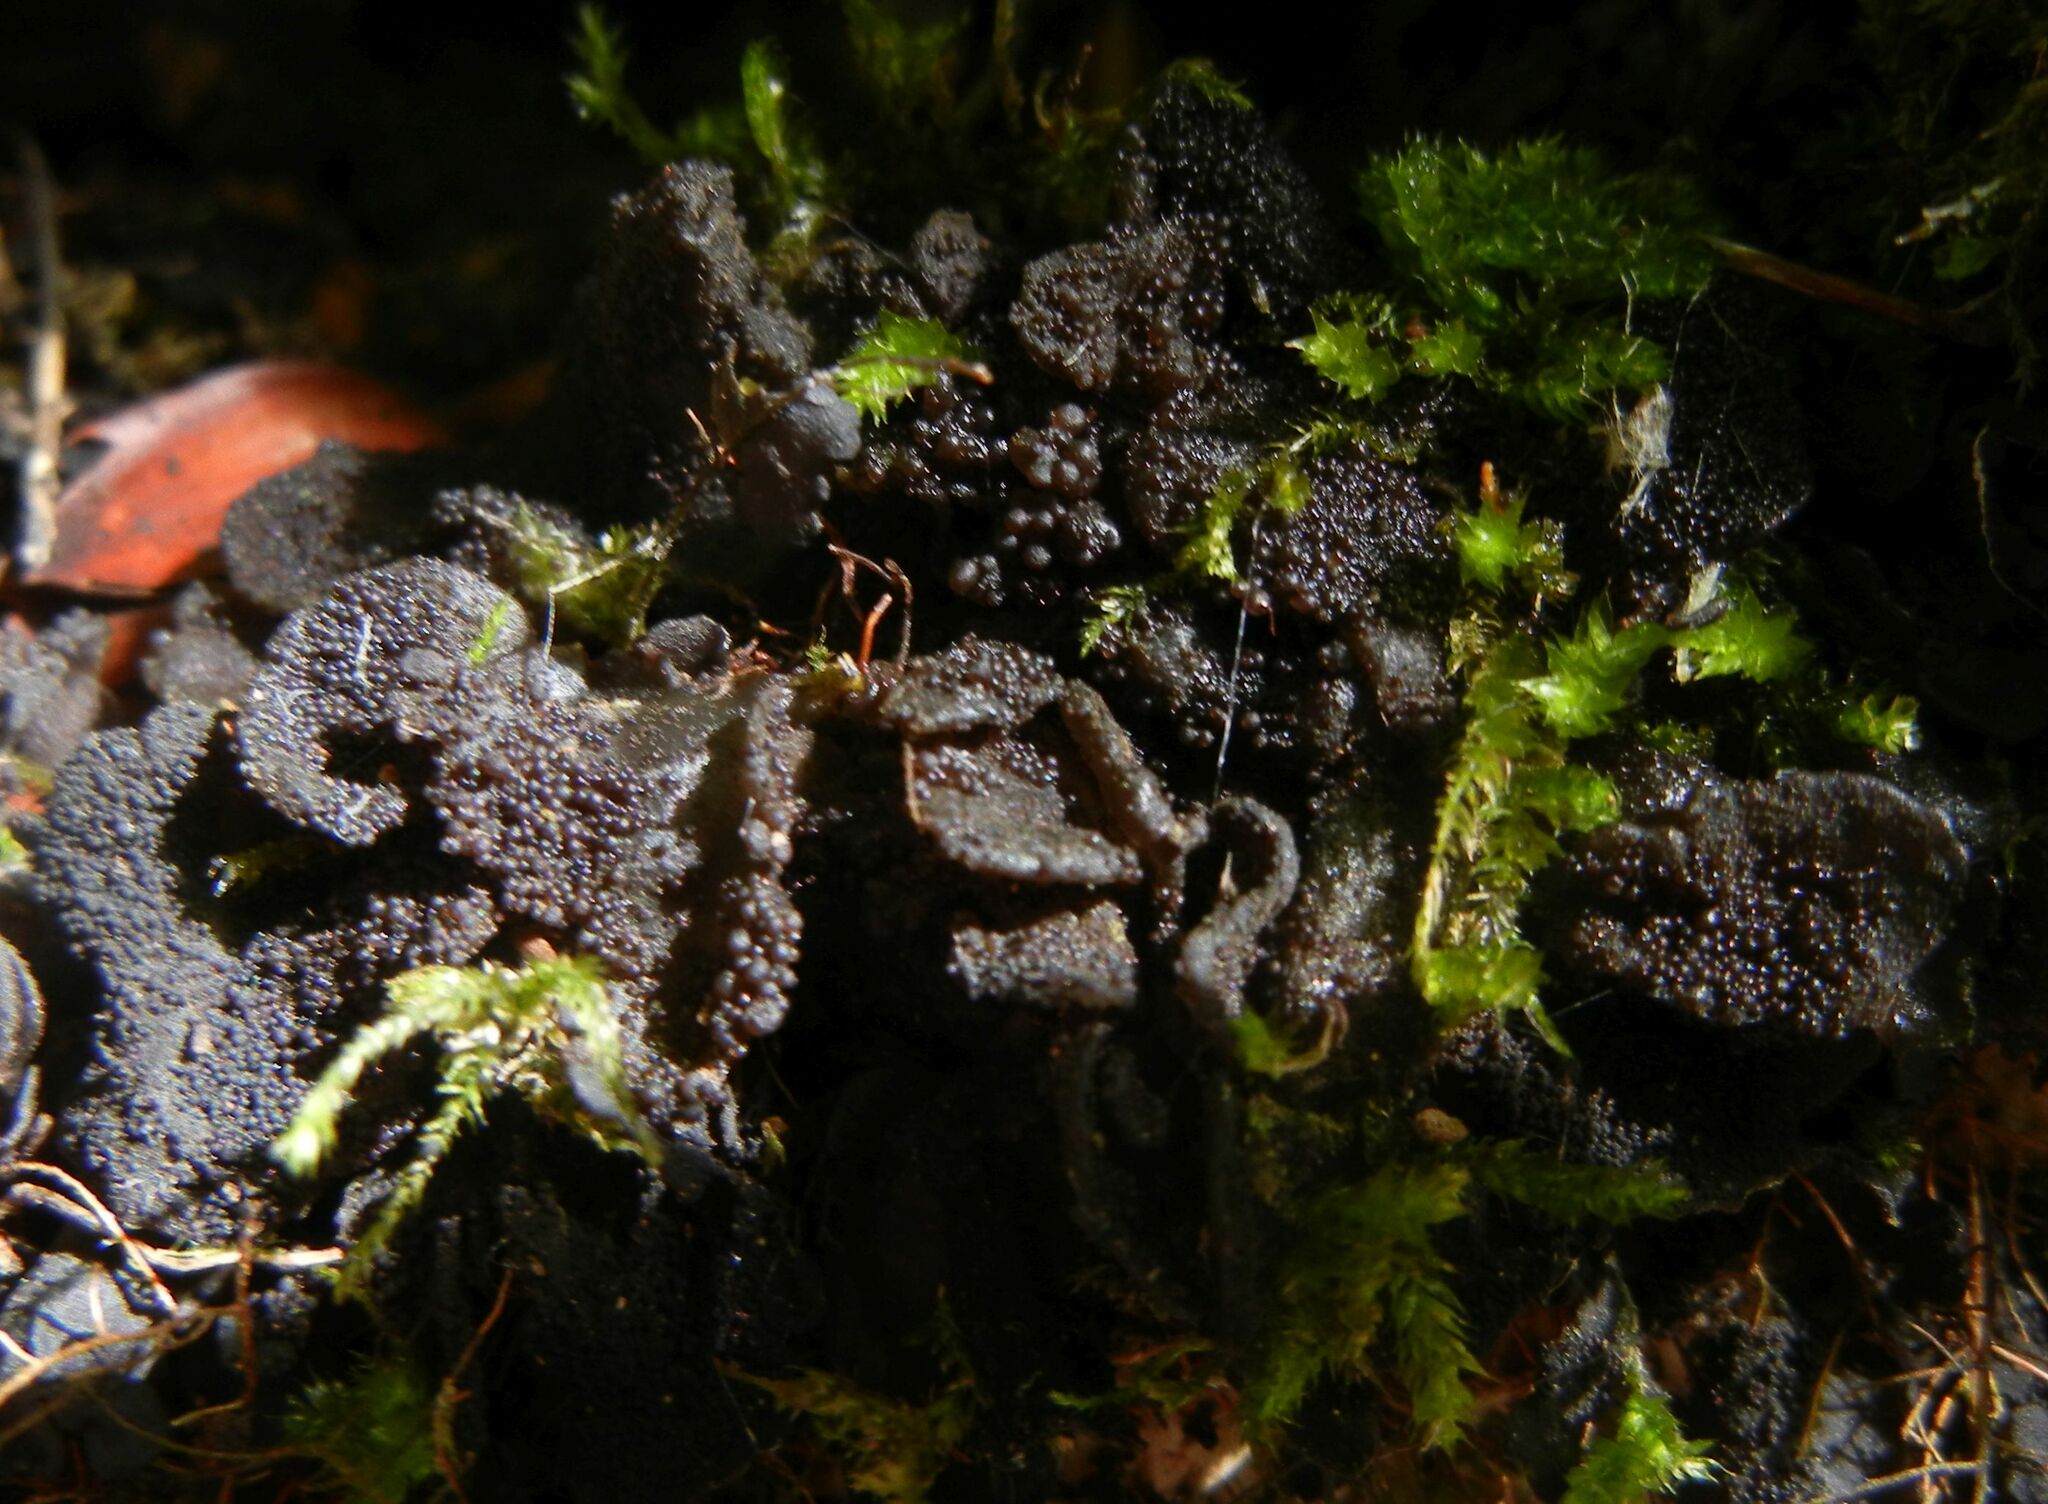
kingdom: Fungi
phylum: Ascomycota
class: Lecanoromycetes
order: Peltigerales
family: Collemataceae
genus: Lathagrium
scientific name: Lathagrium auriforme
